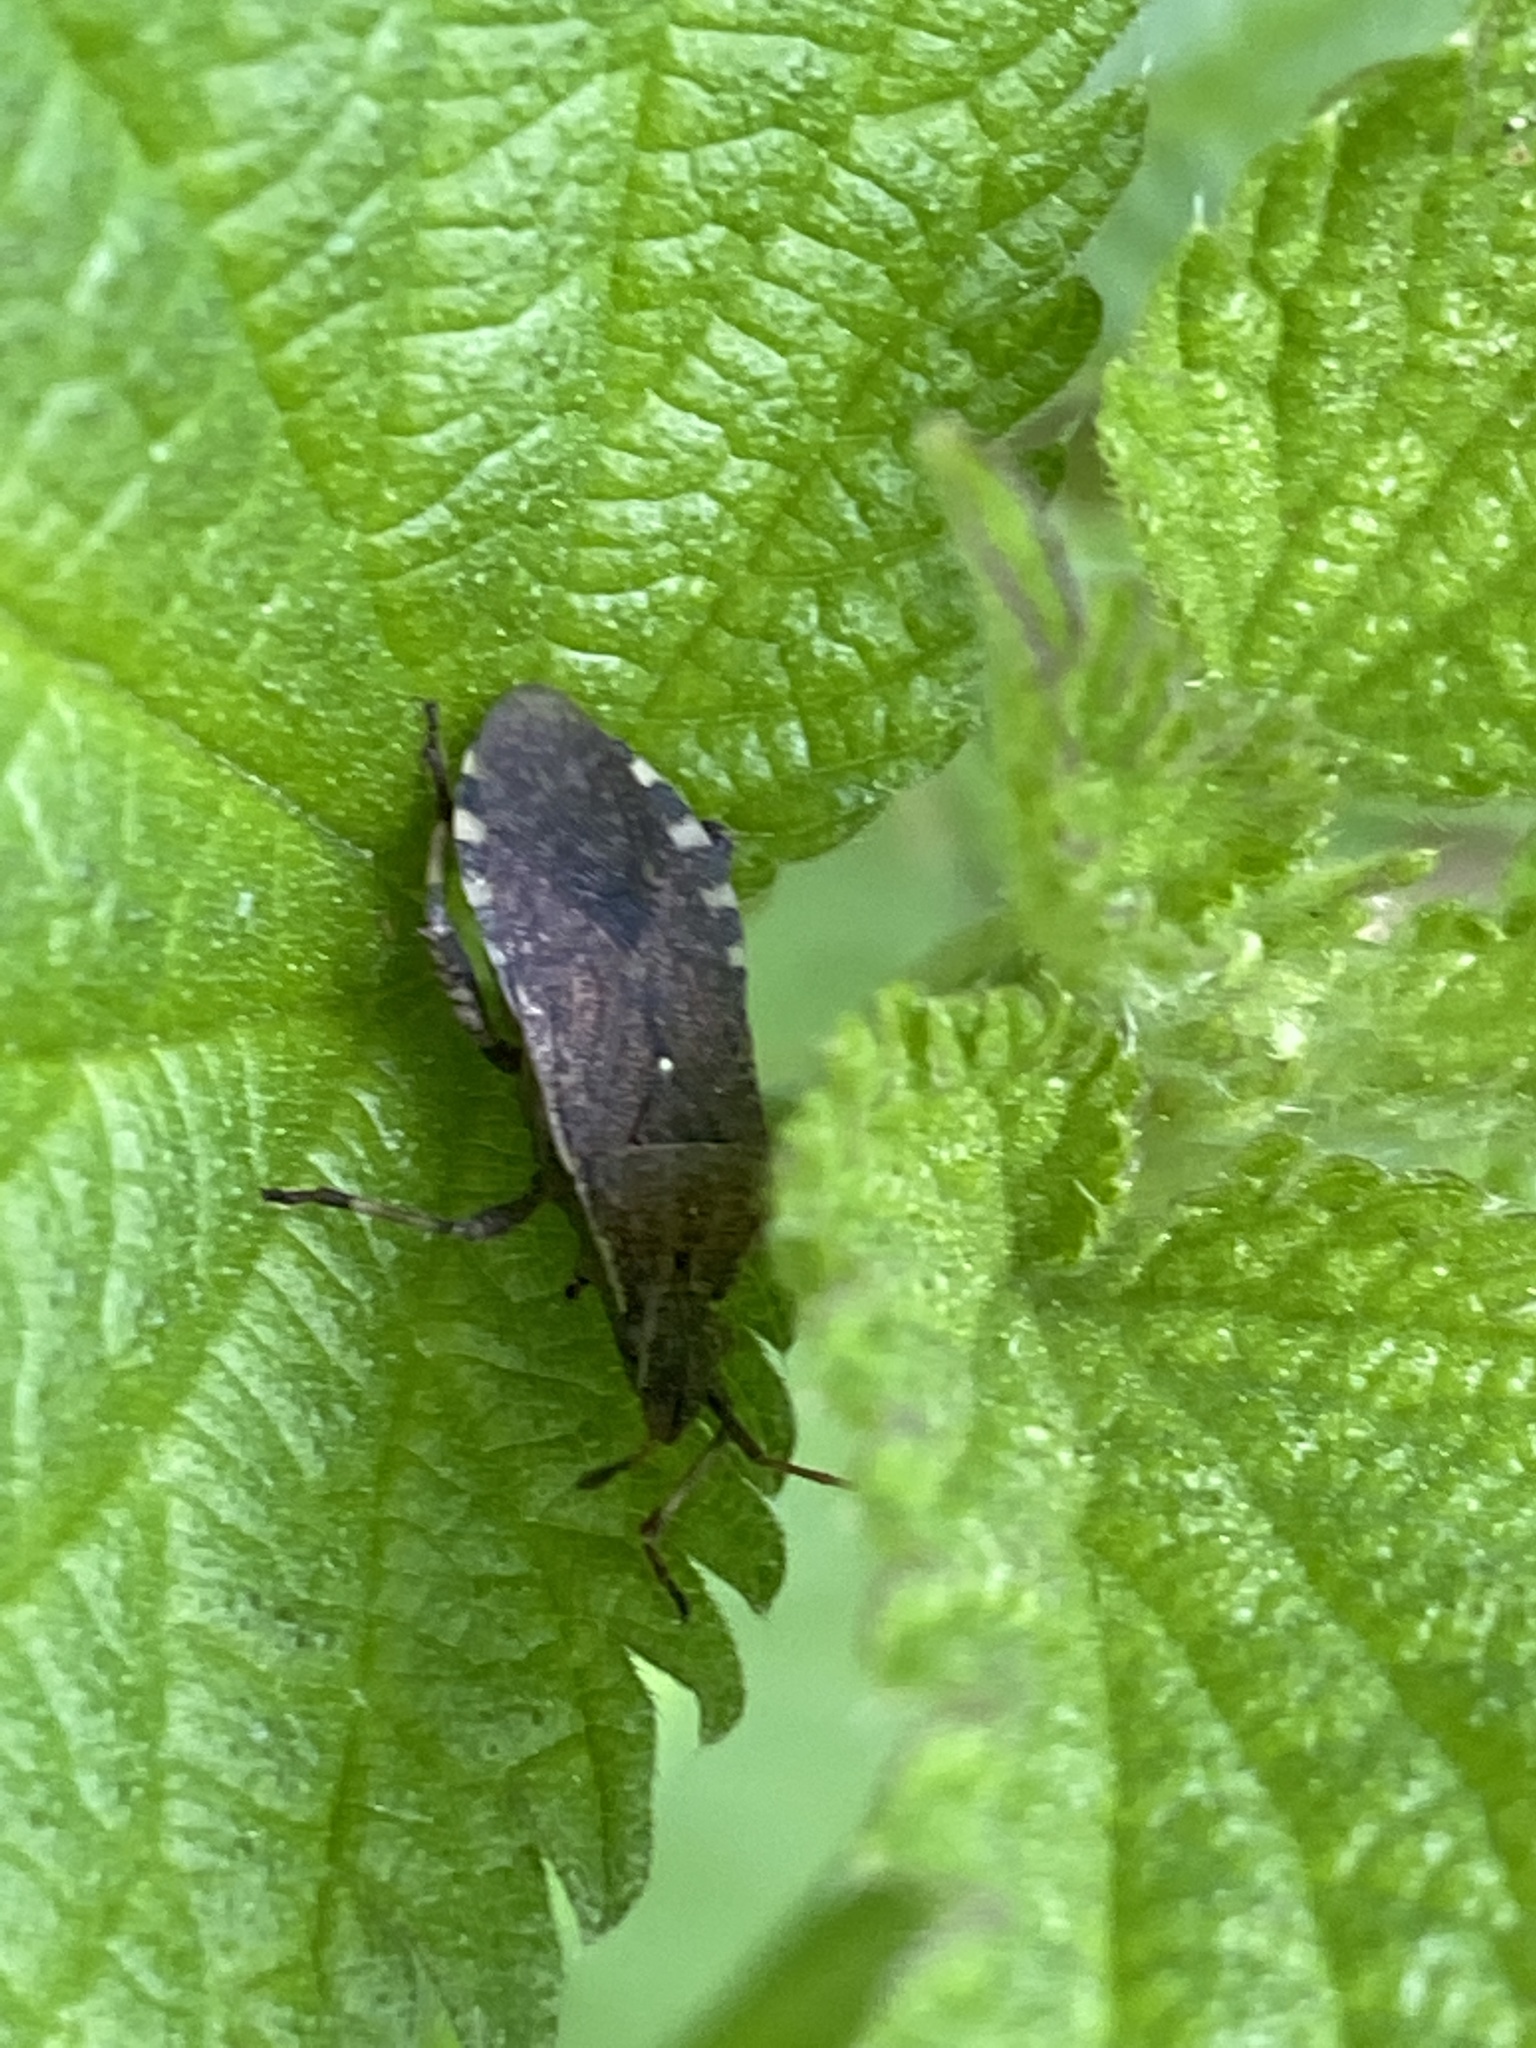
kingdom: Animalia
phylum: Arthropoda
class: Insecta
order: Hemiptera
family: Coreidae
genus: Ceraleptus
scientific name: Ceraleptus gracilicornis
